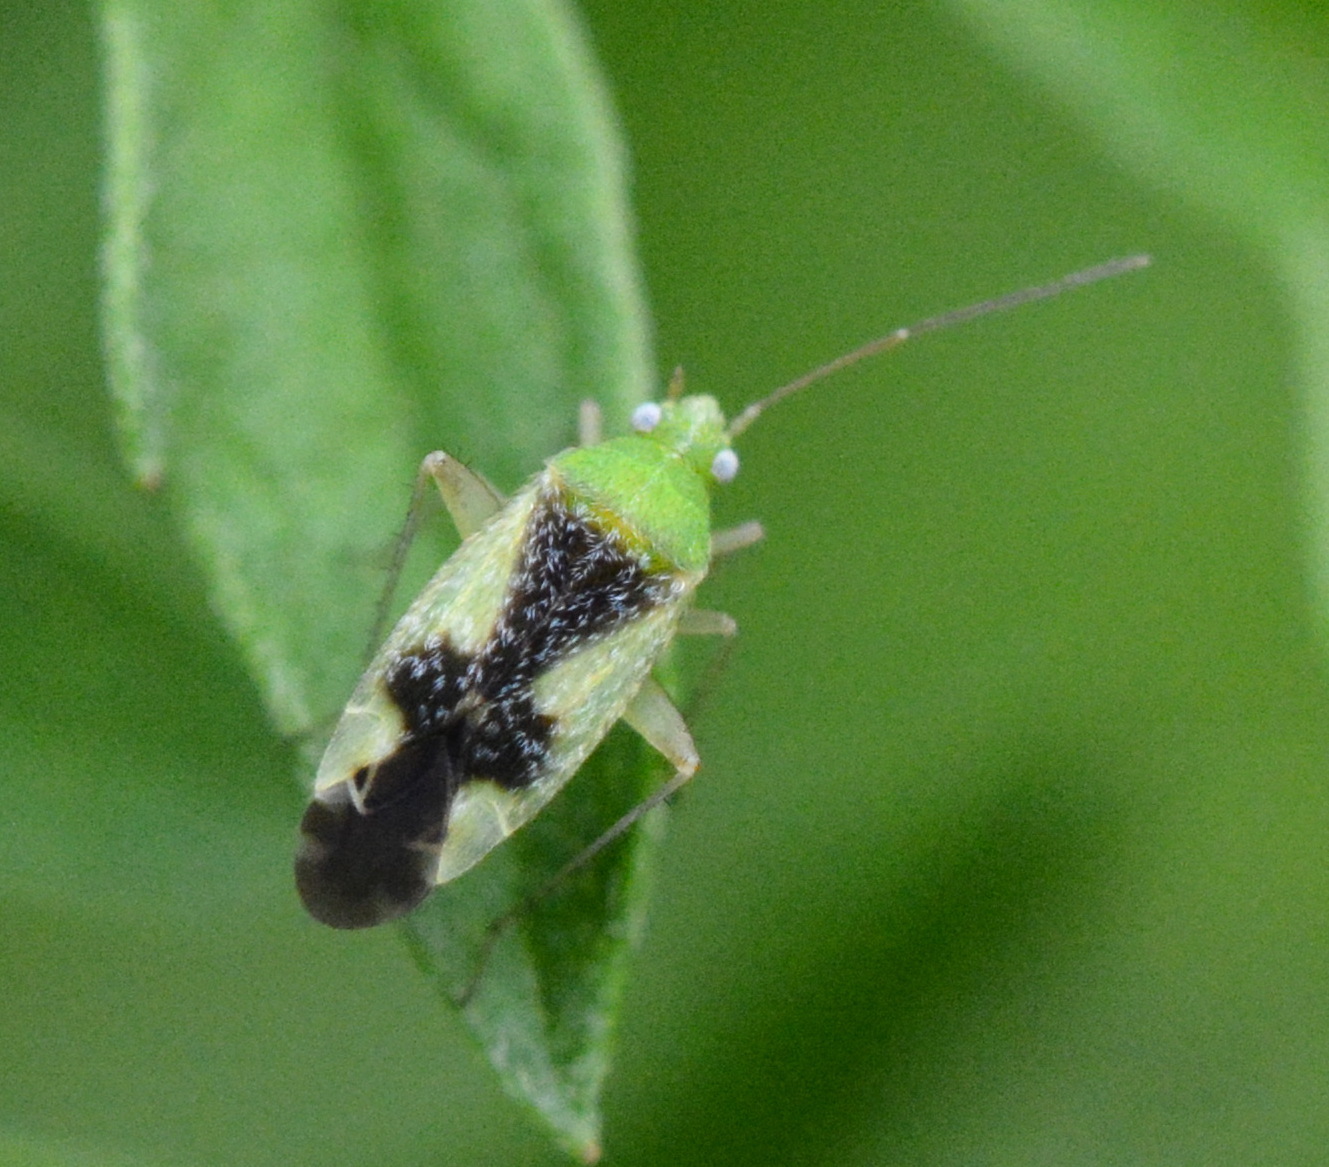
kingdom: Animalia
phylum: Arthropoda
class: Insecta
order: Hemiptera
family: Miridae
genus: Reuteroscopus
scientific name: Reuteroscopus ornatus
